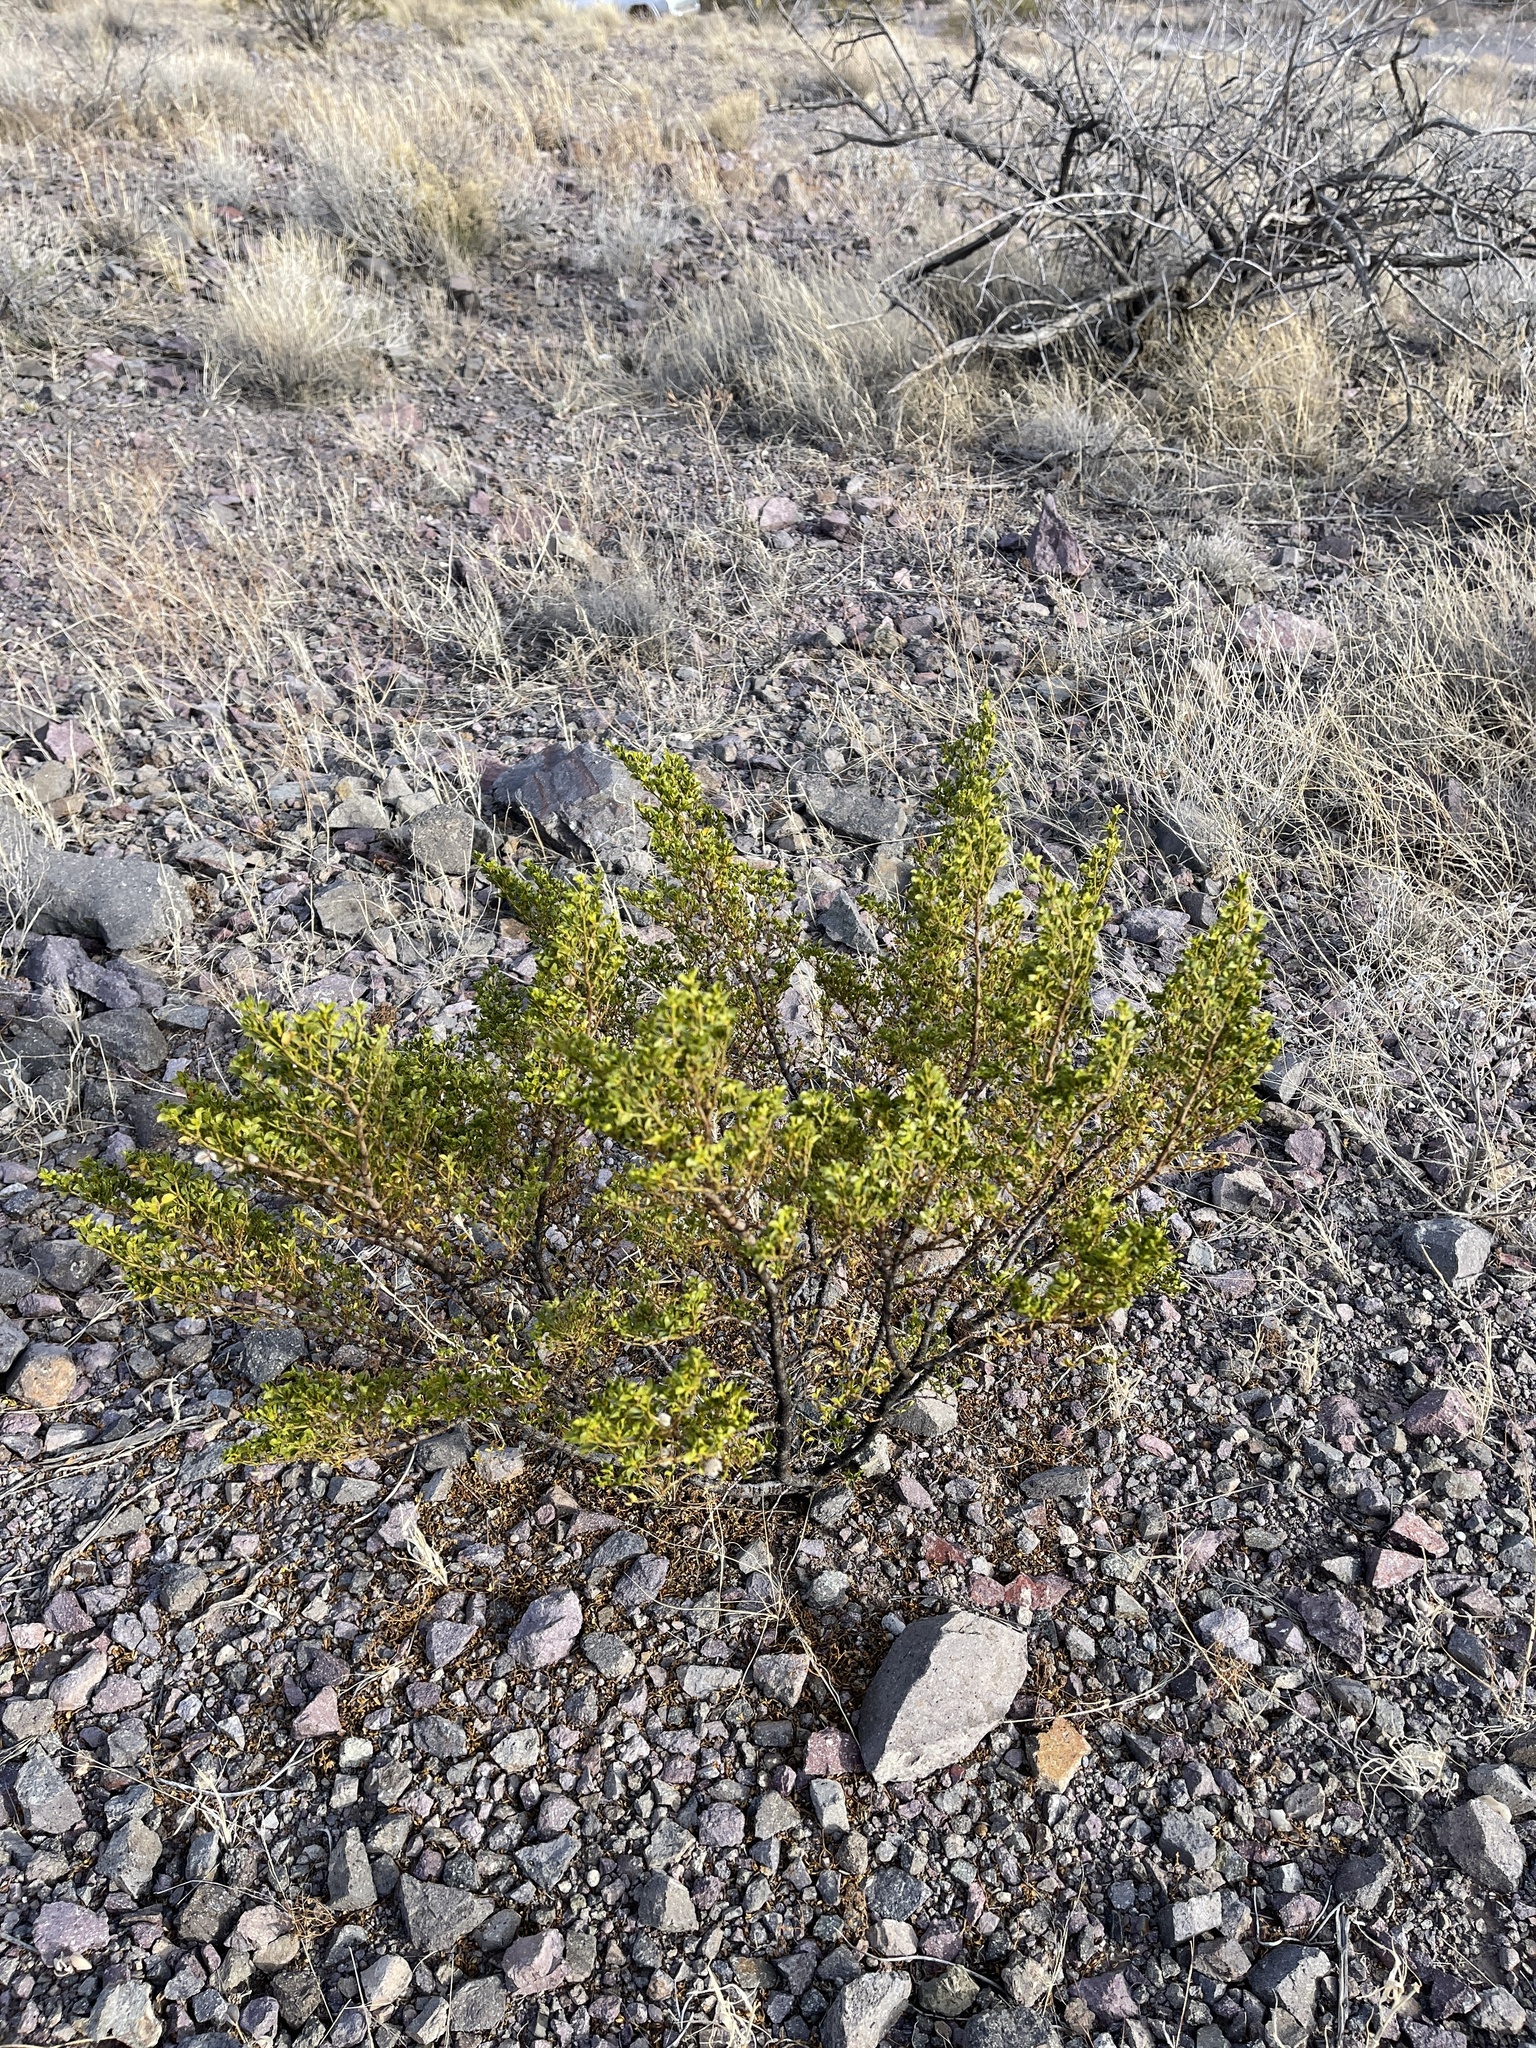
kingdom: Plantae
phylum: Tracheophyta
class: Magnoliopsida
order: Zygophyllales
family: Zygophyllaceae
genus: Larrea
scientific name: Larrea tridentata
